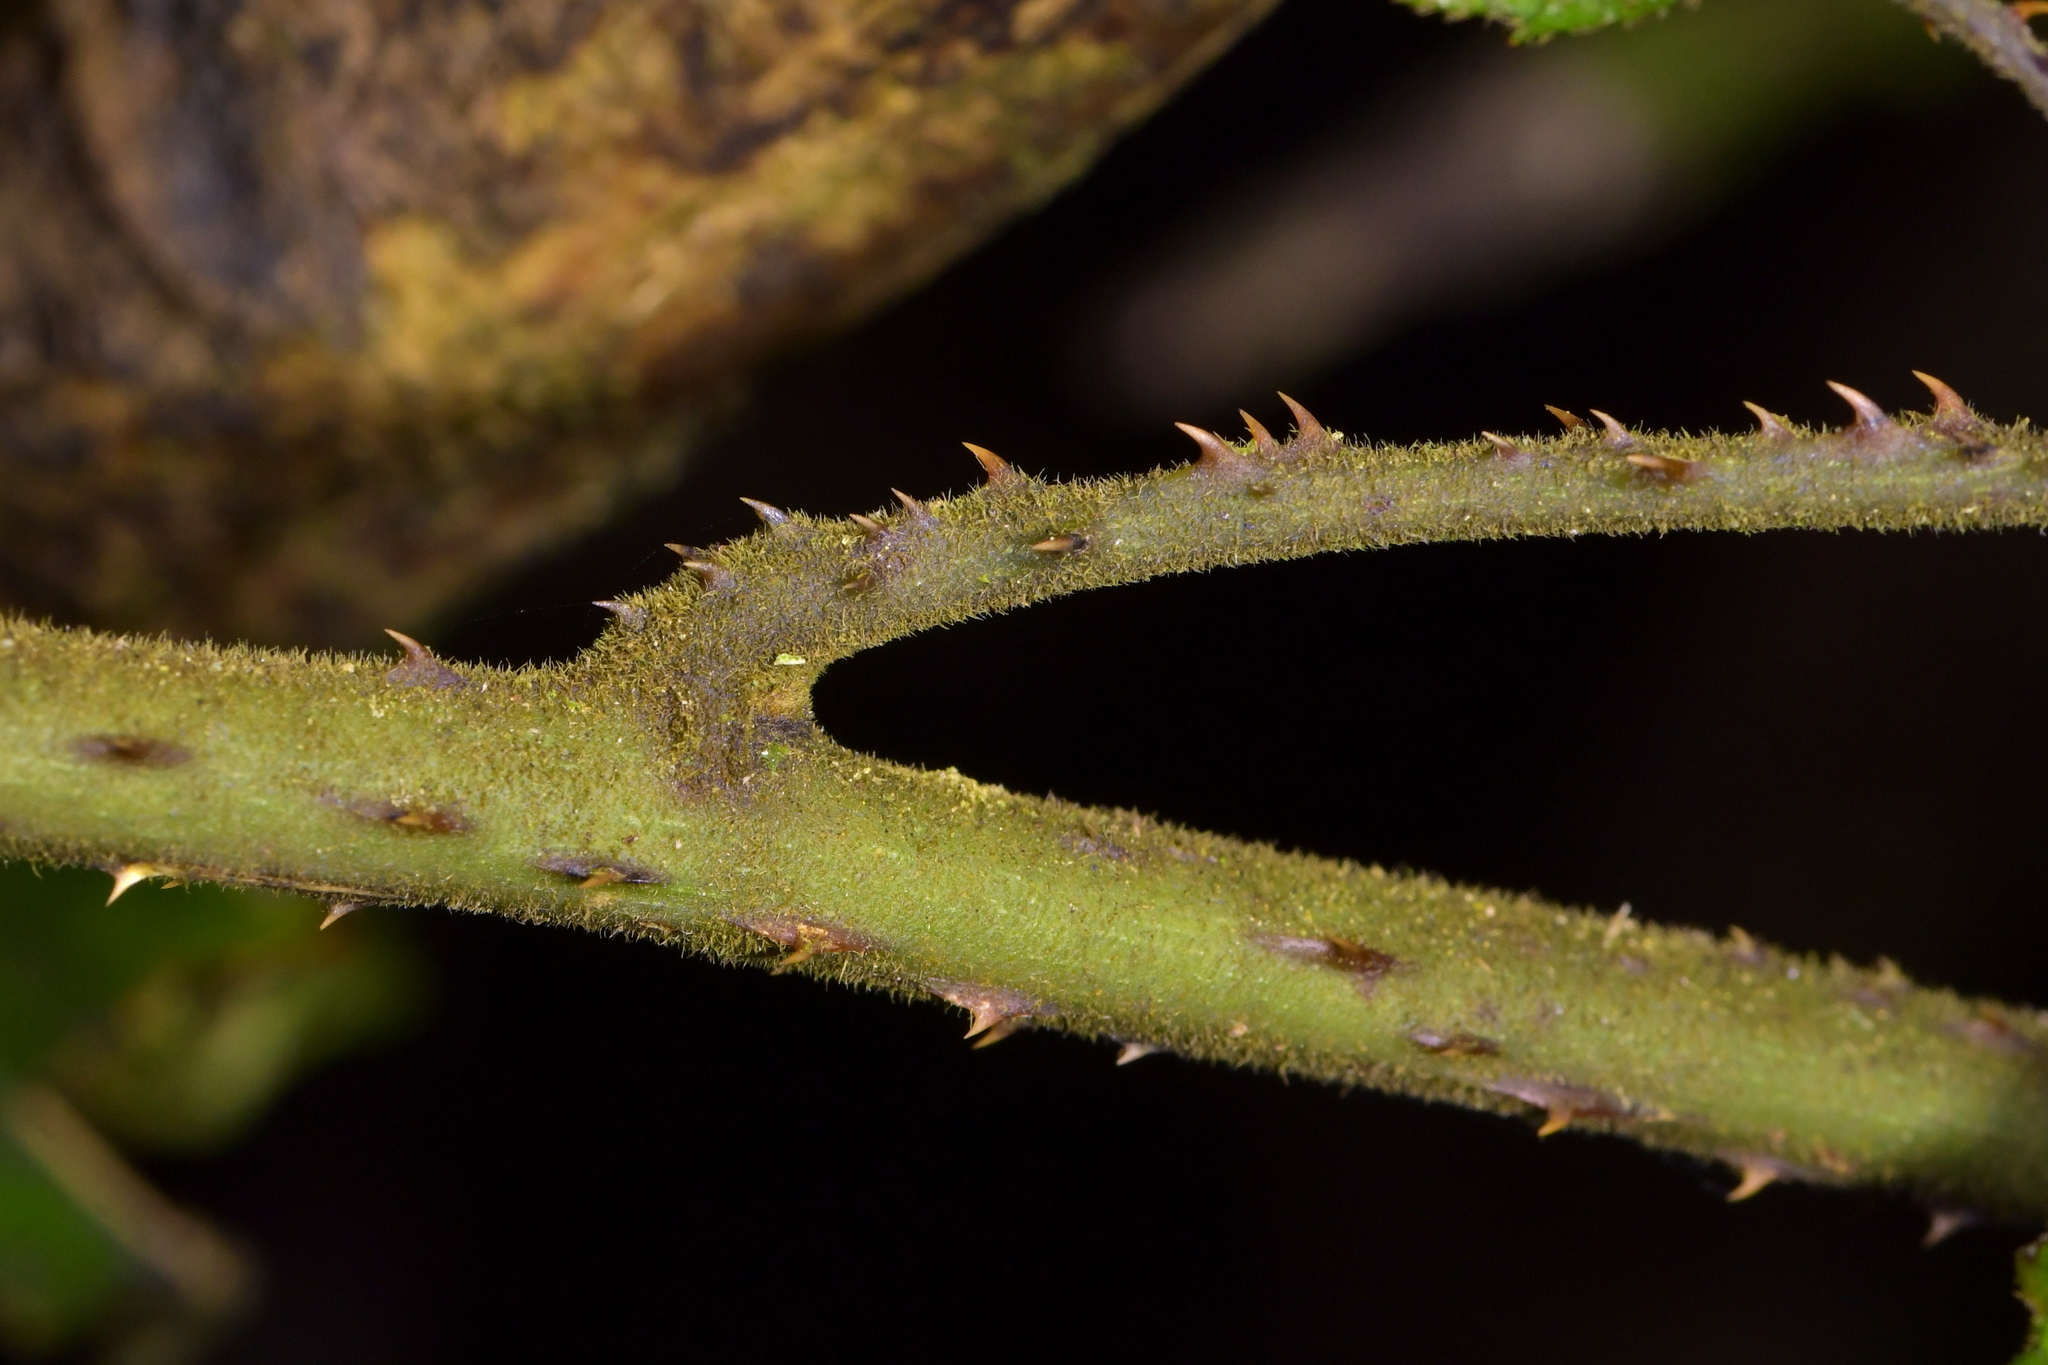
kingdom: Plantae
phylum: Tracheophyta
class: Magnoliopsida
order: Rosales
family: Rosaceae
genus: Rubus
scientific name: Rubus australis
